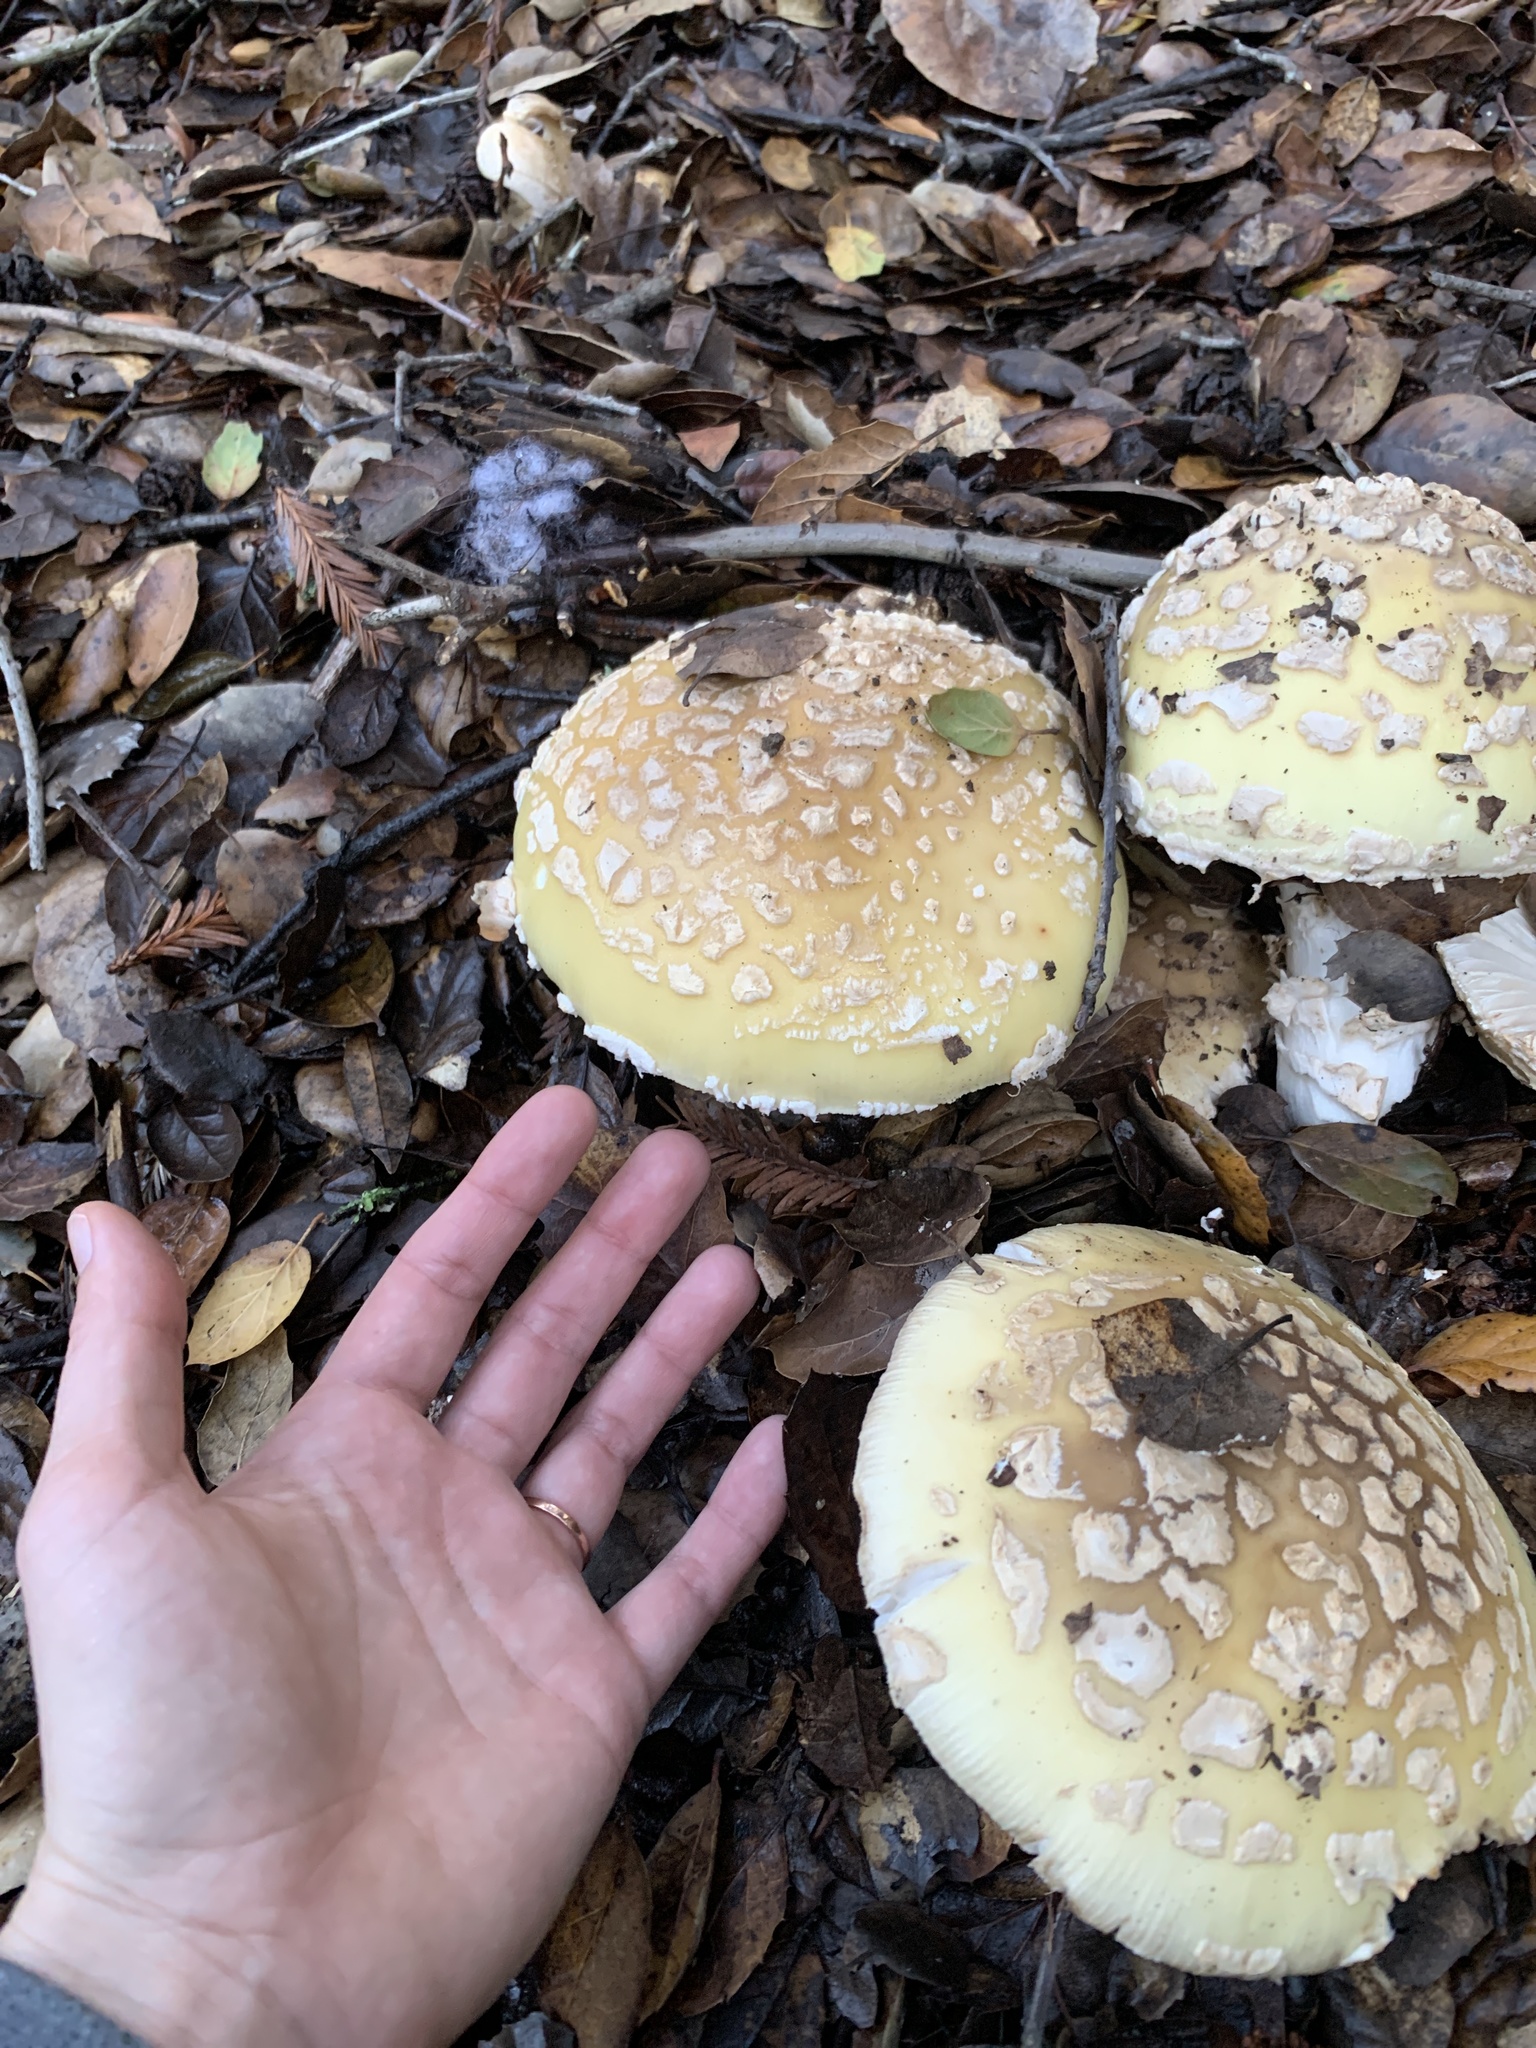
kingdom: Fungi
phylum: Basidiomycota
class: Agaricomycetes
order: Agaricales
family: Amanitaceae
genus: Amanita
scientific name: Amanita umbrinidisca
